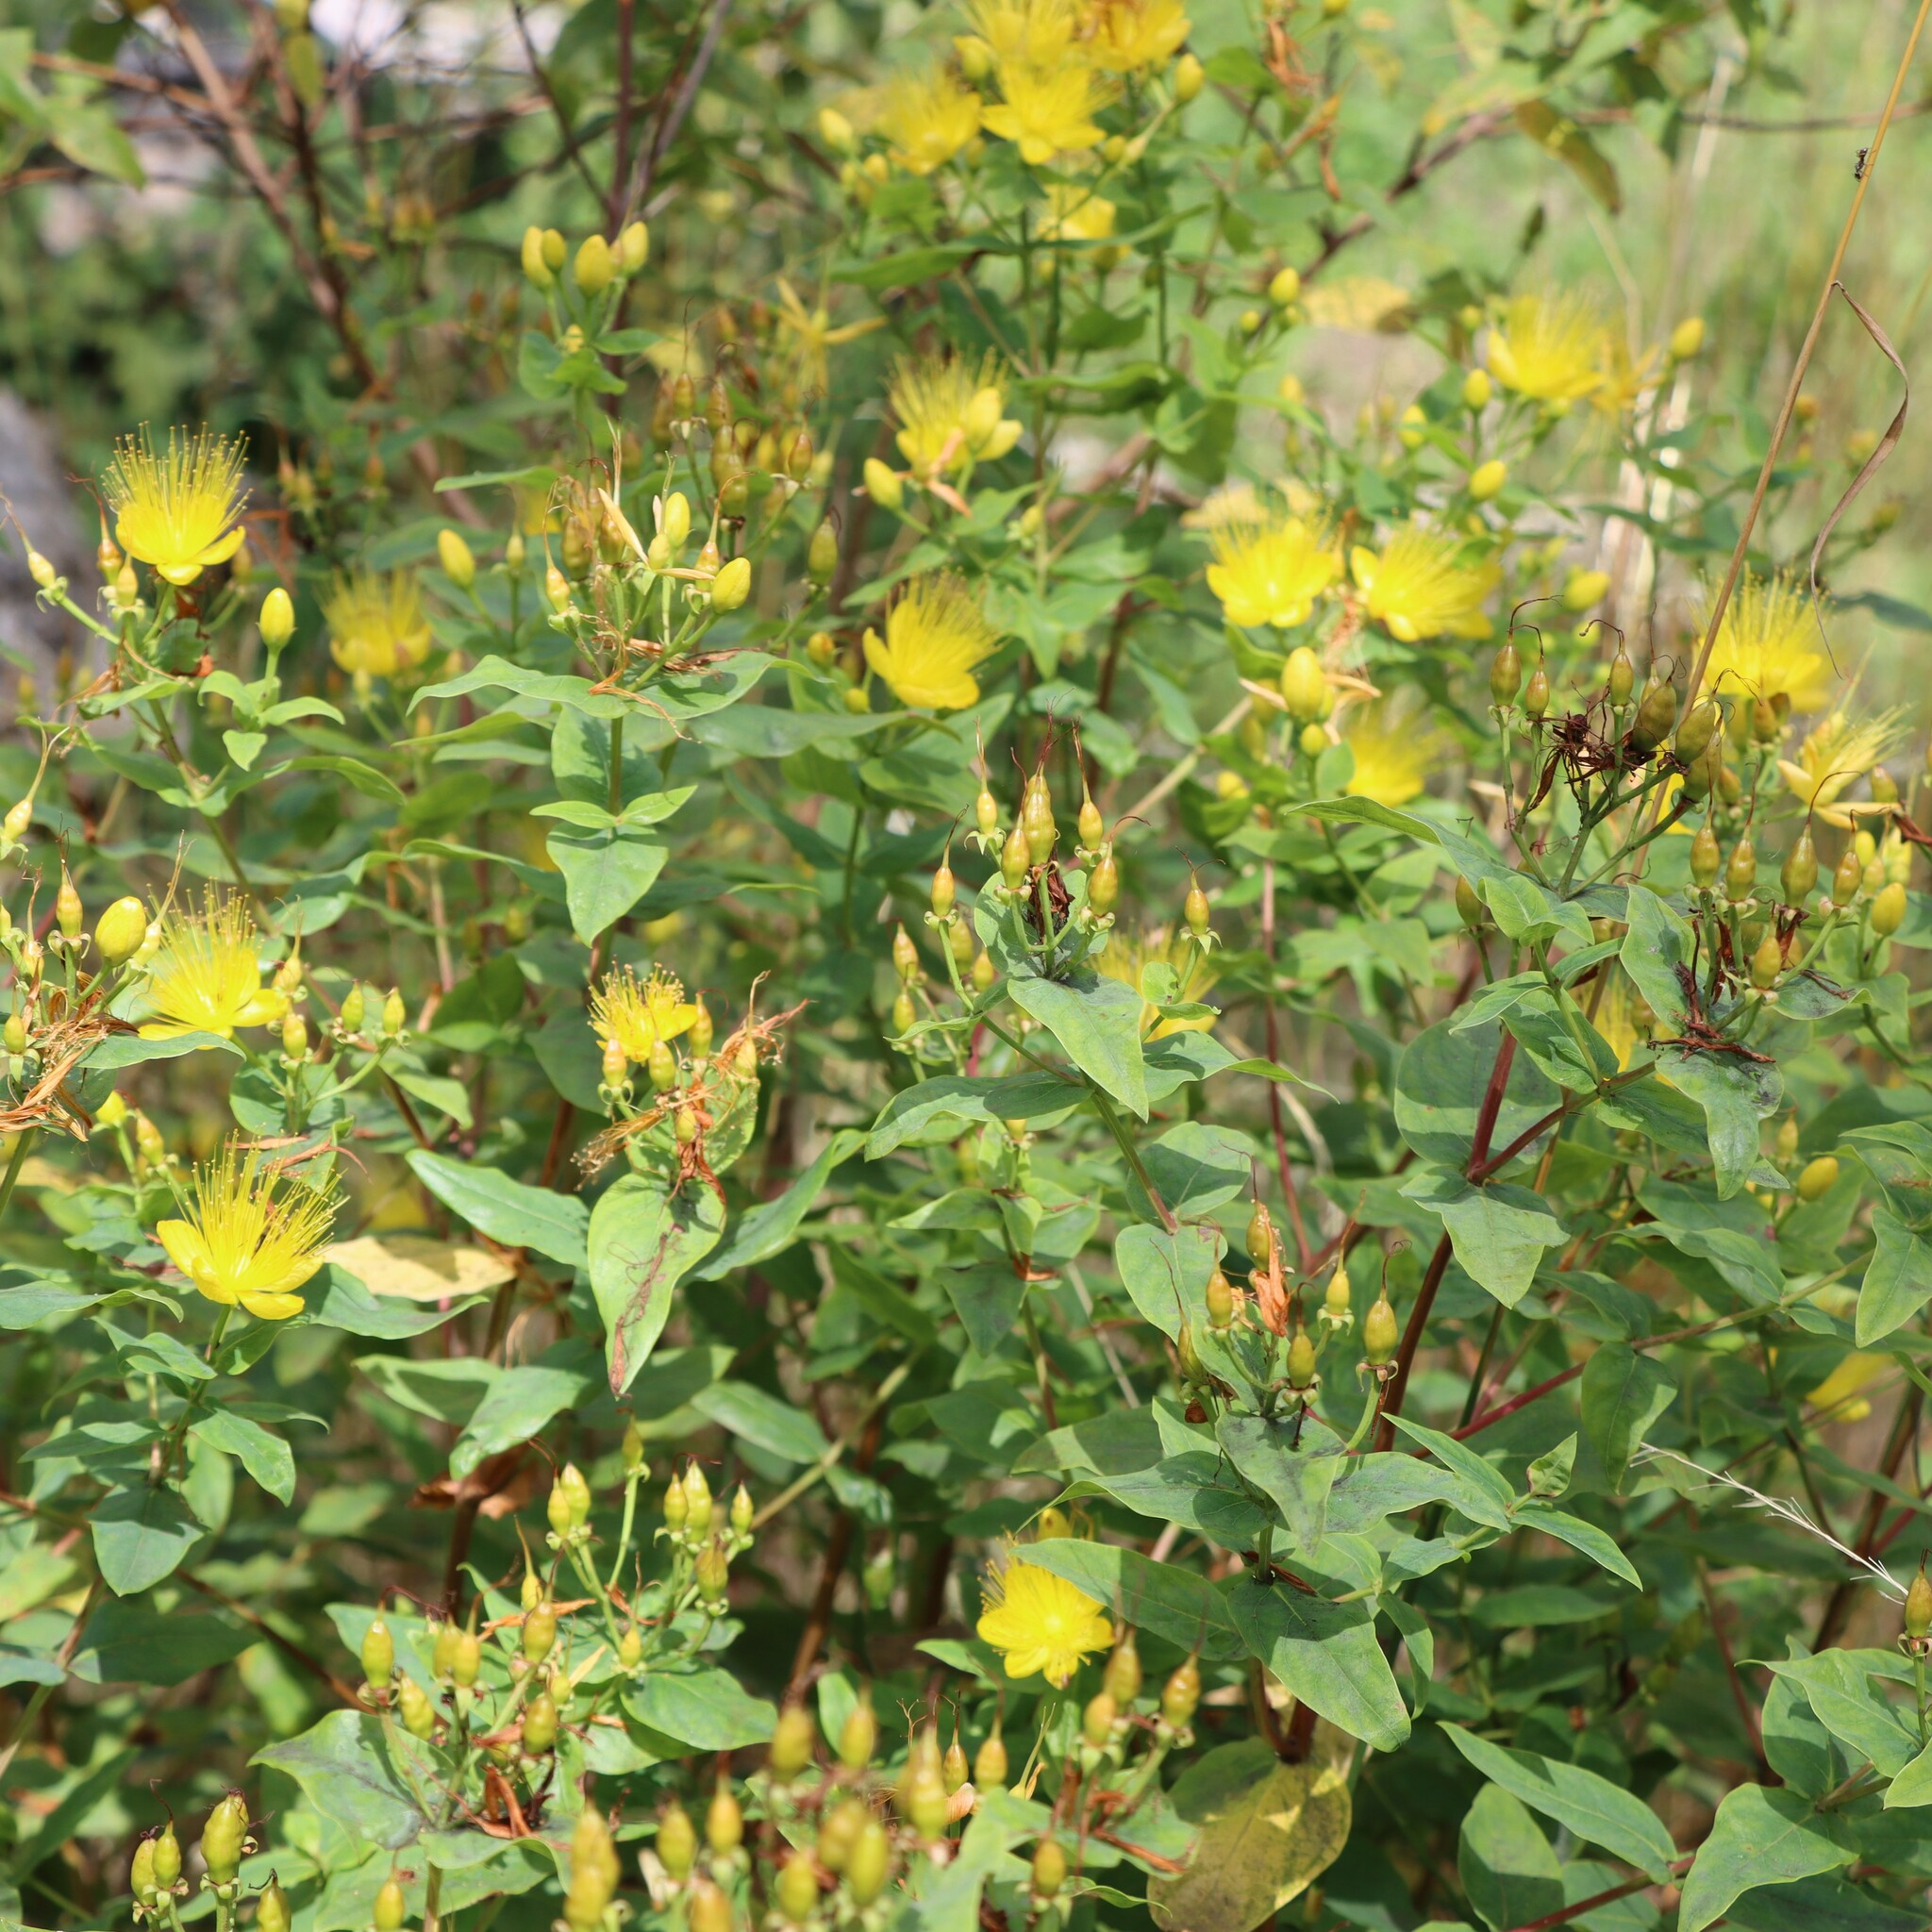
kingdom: Plantae
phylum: Tracheophyta
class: Magnoliopsida
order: Malpighiales
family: Hypericaceae
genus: Hypericum
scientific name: Hypericum hircinum
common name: Stinking tutsan
